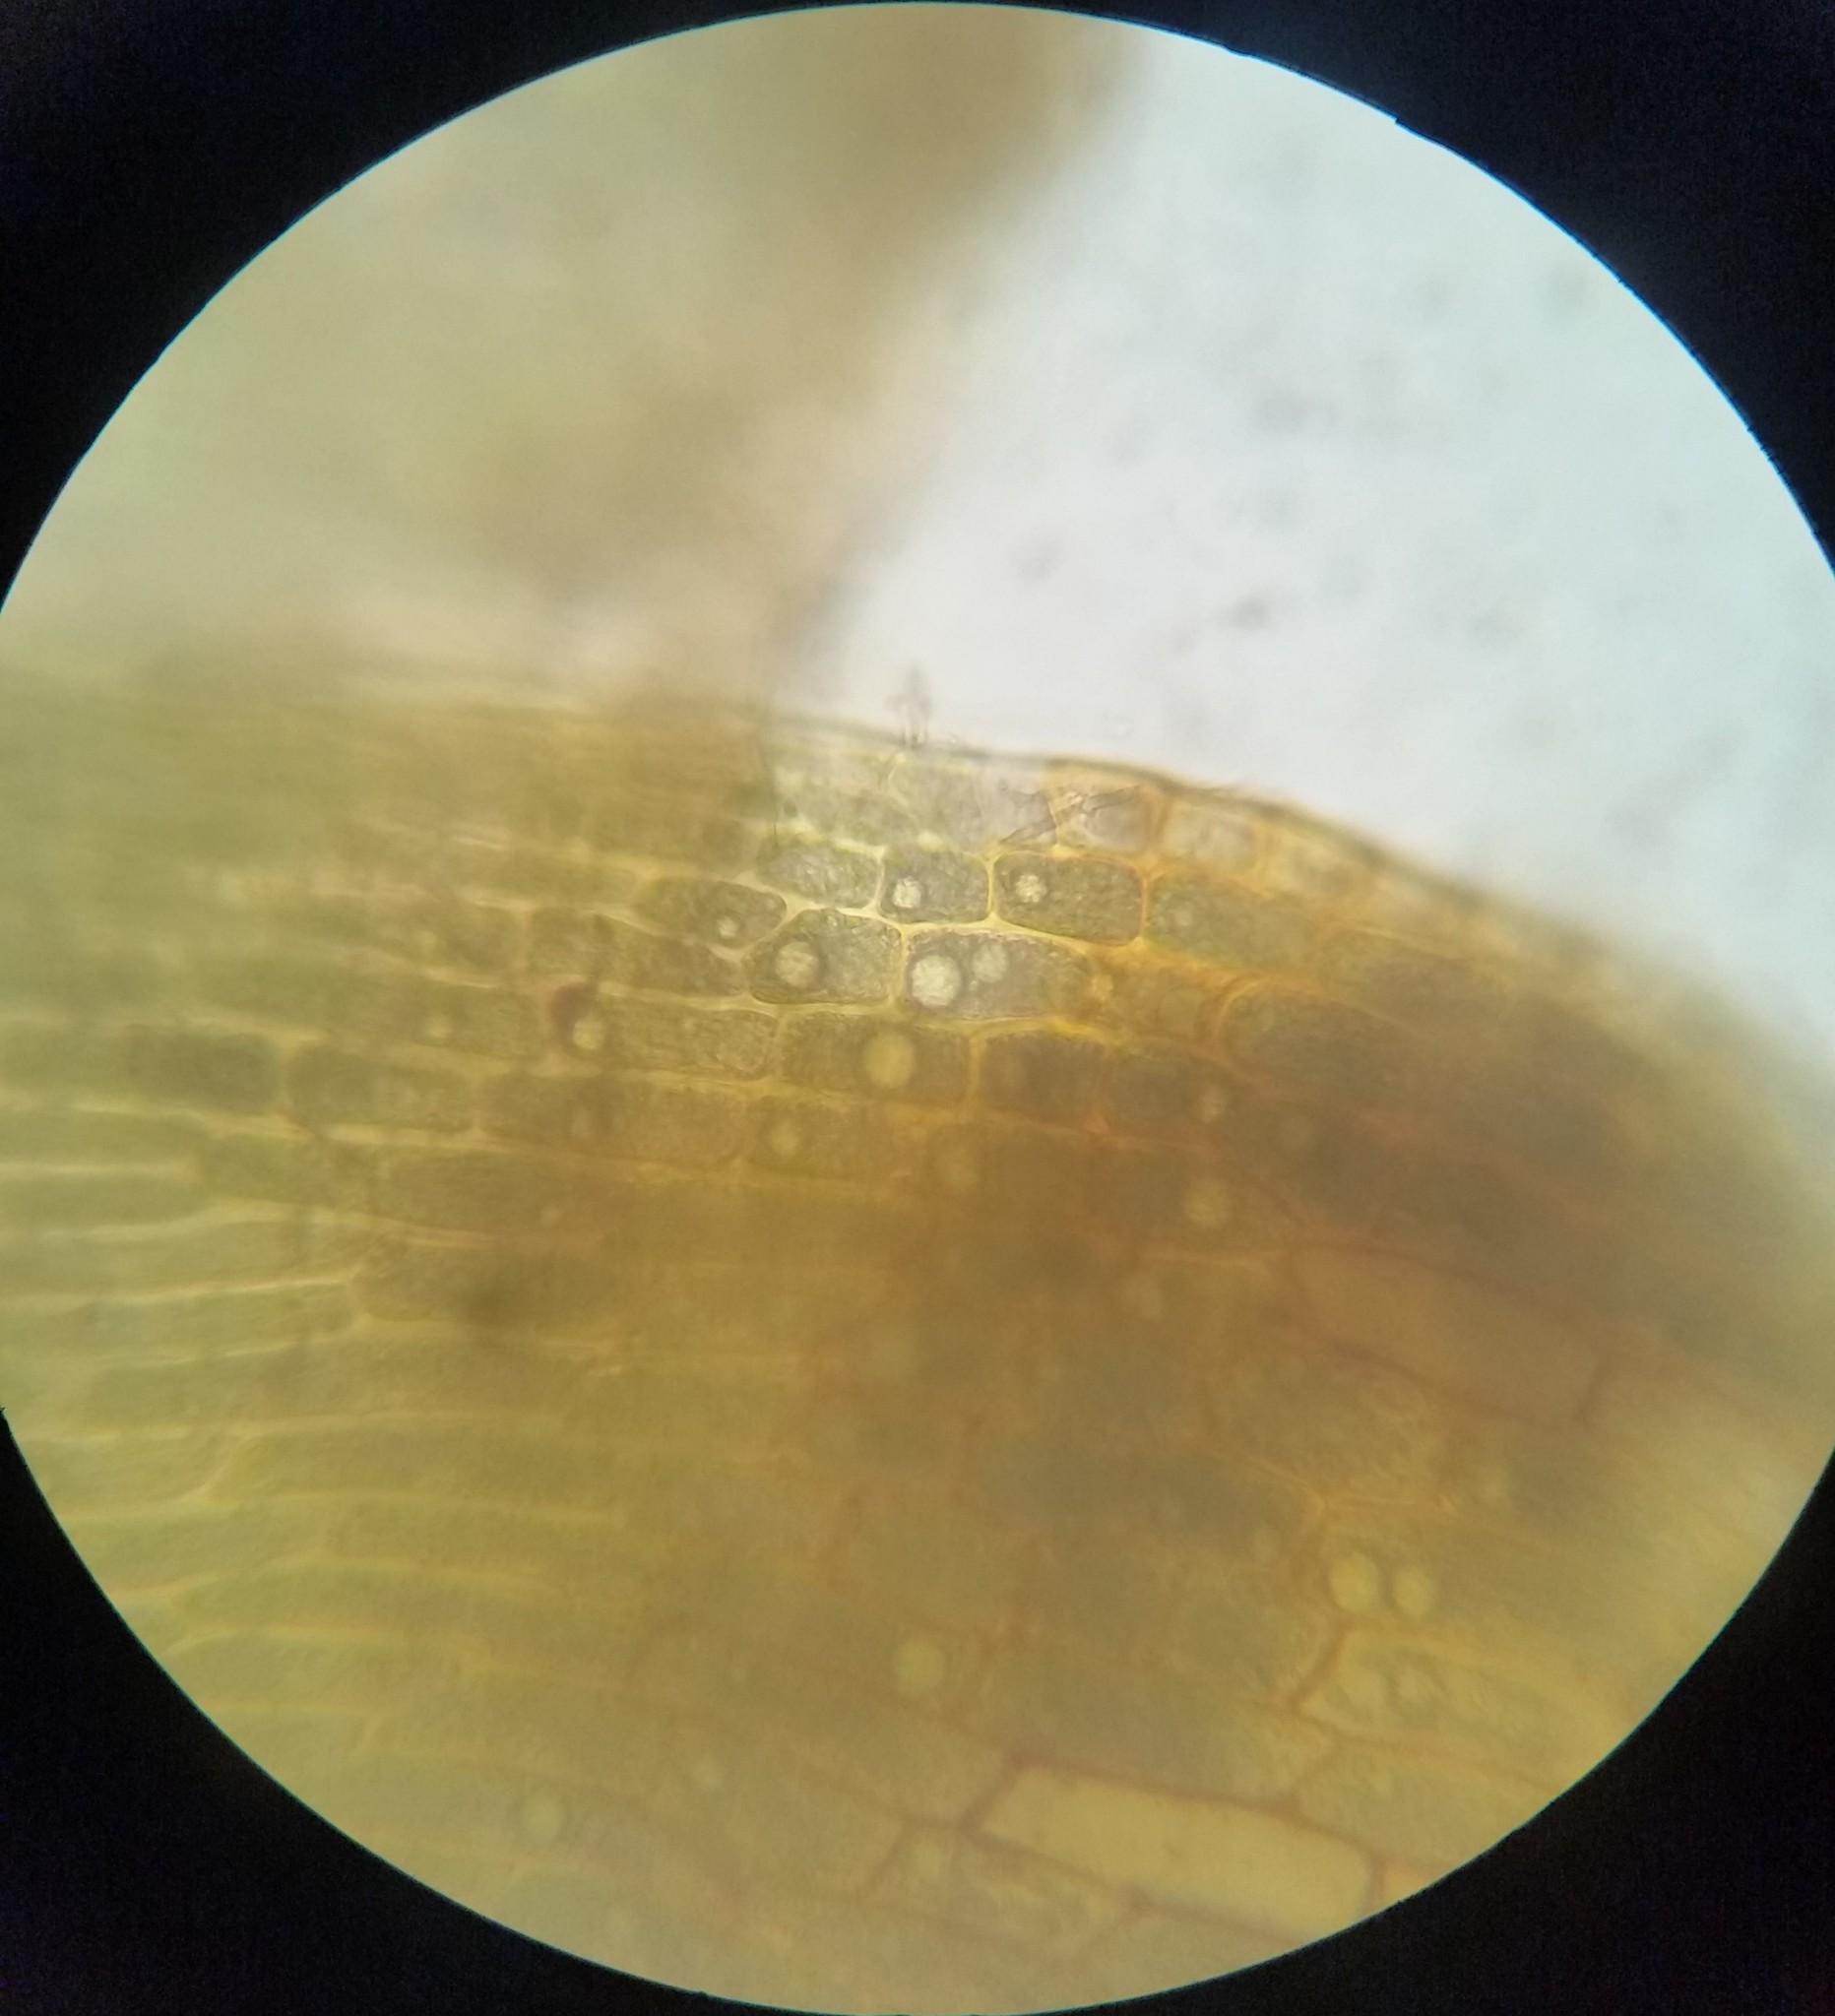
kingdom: Plantae
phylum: Bryophyta
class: Bryopsida
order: Dicranales
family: Dicranaceae
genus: Dicranum
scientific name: Dicranum scoparium
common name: Broom fork-moss
